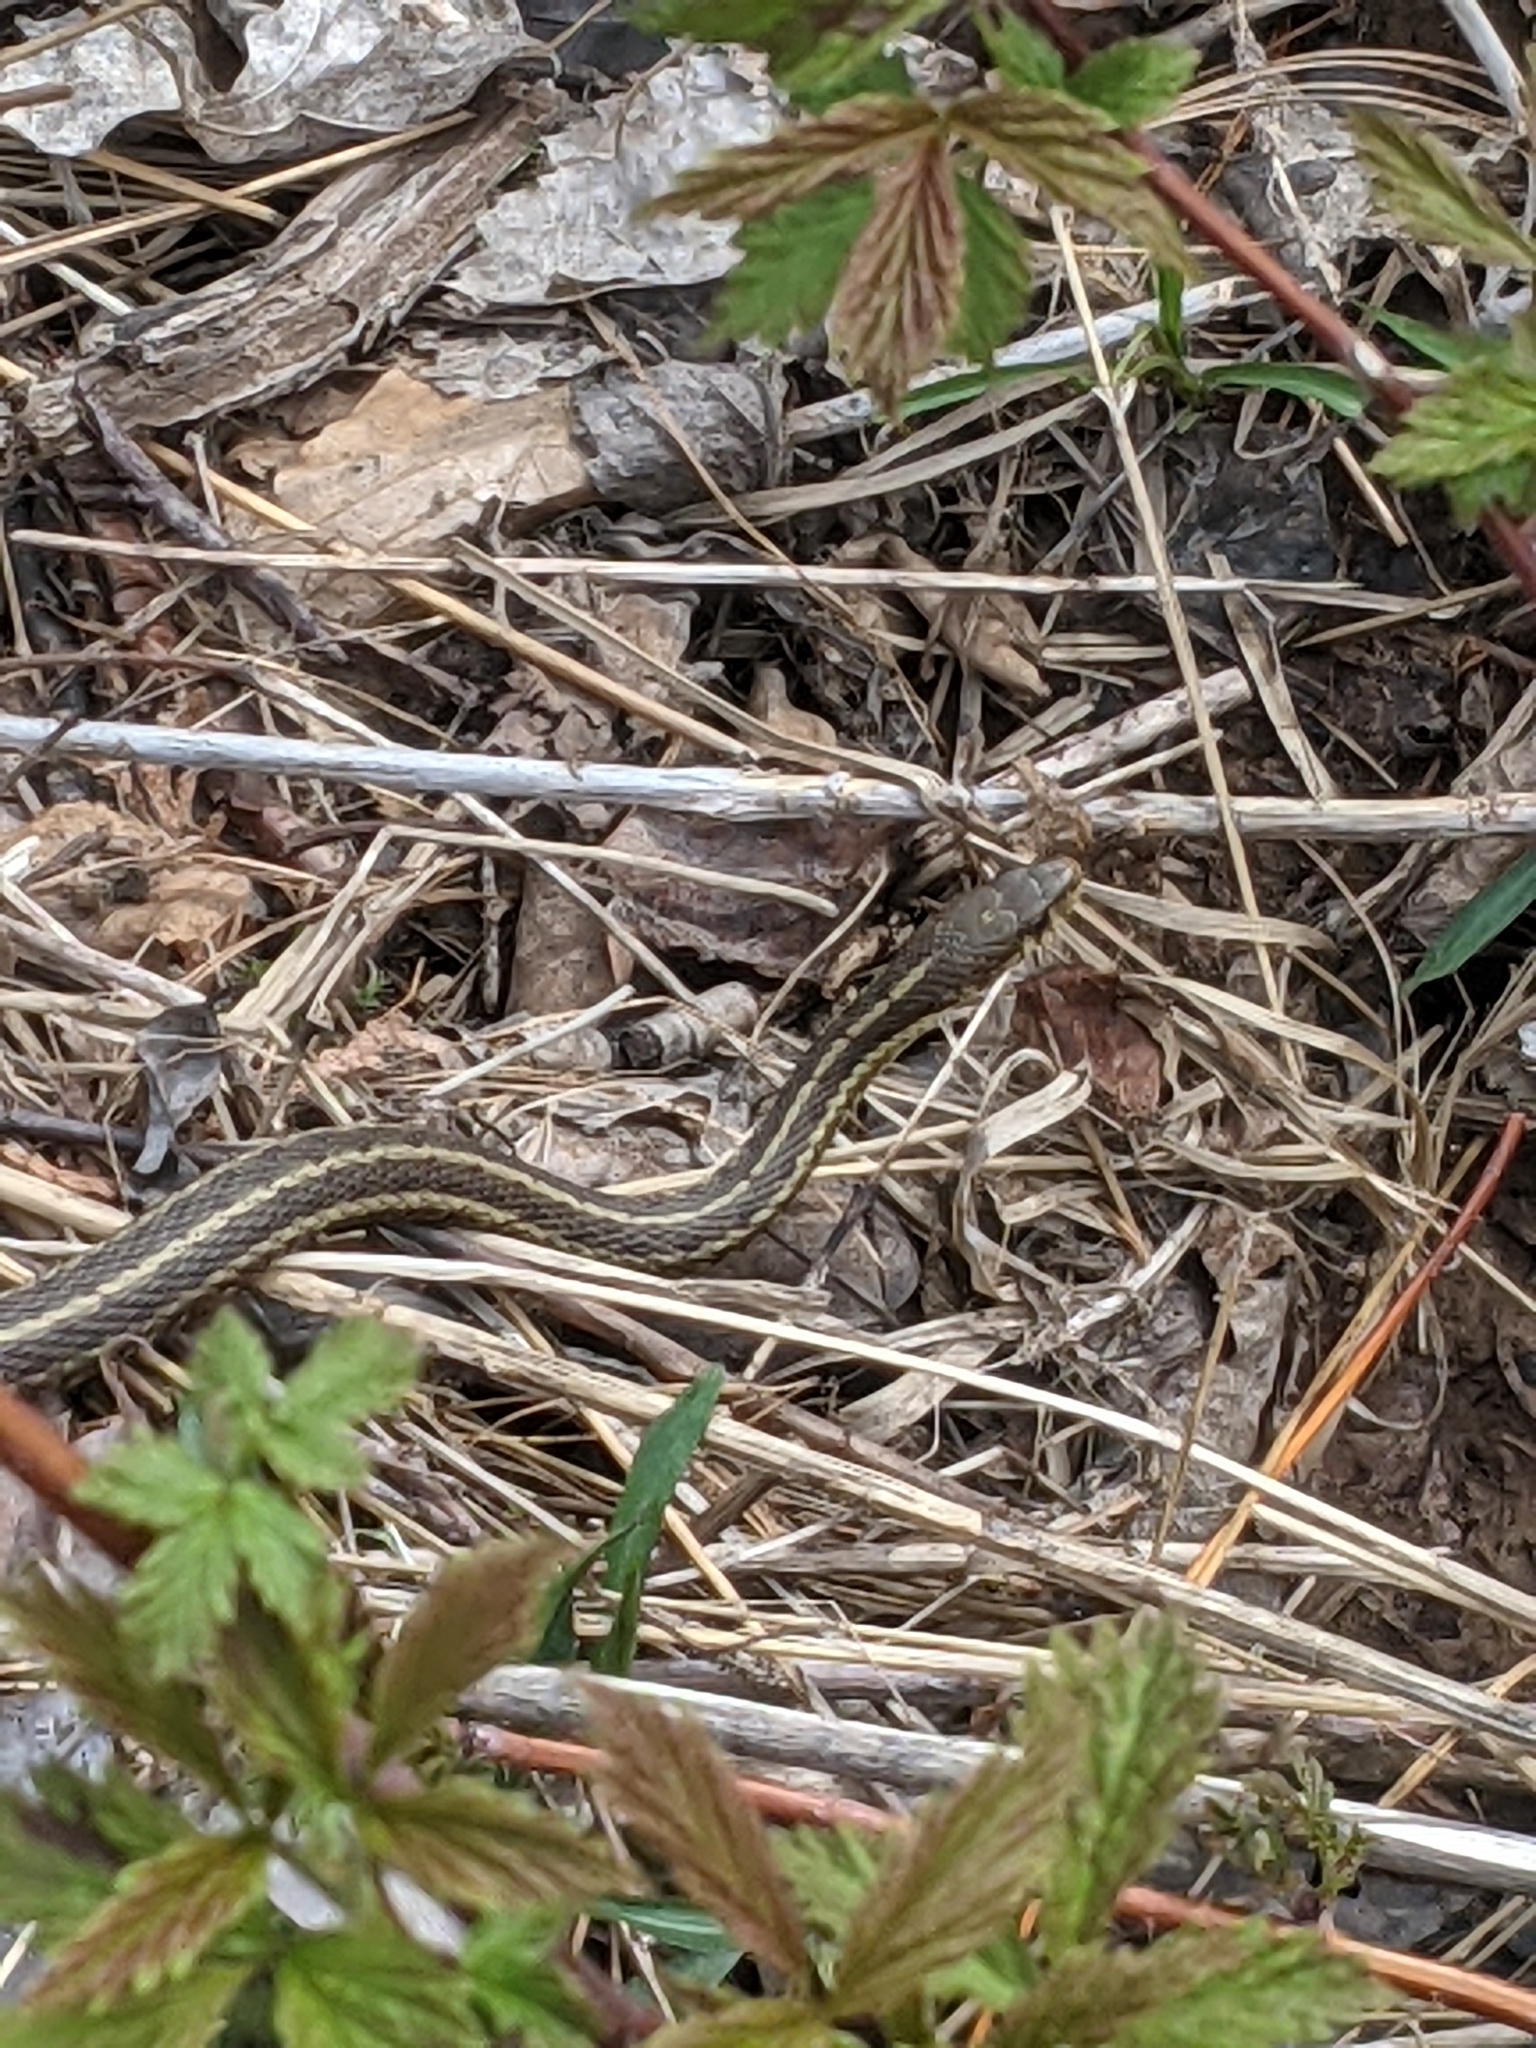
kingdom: Animalia
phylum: Chordata
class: Squamata
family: Colubridae
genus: Thamnophis
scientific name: Thamnophis sirtalis
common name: Common garter snake
